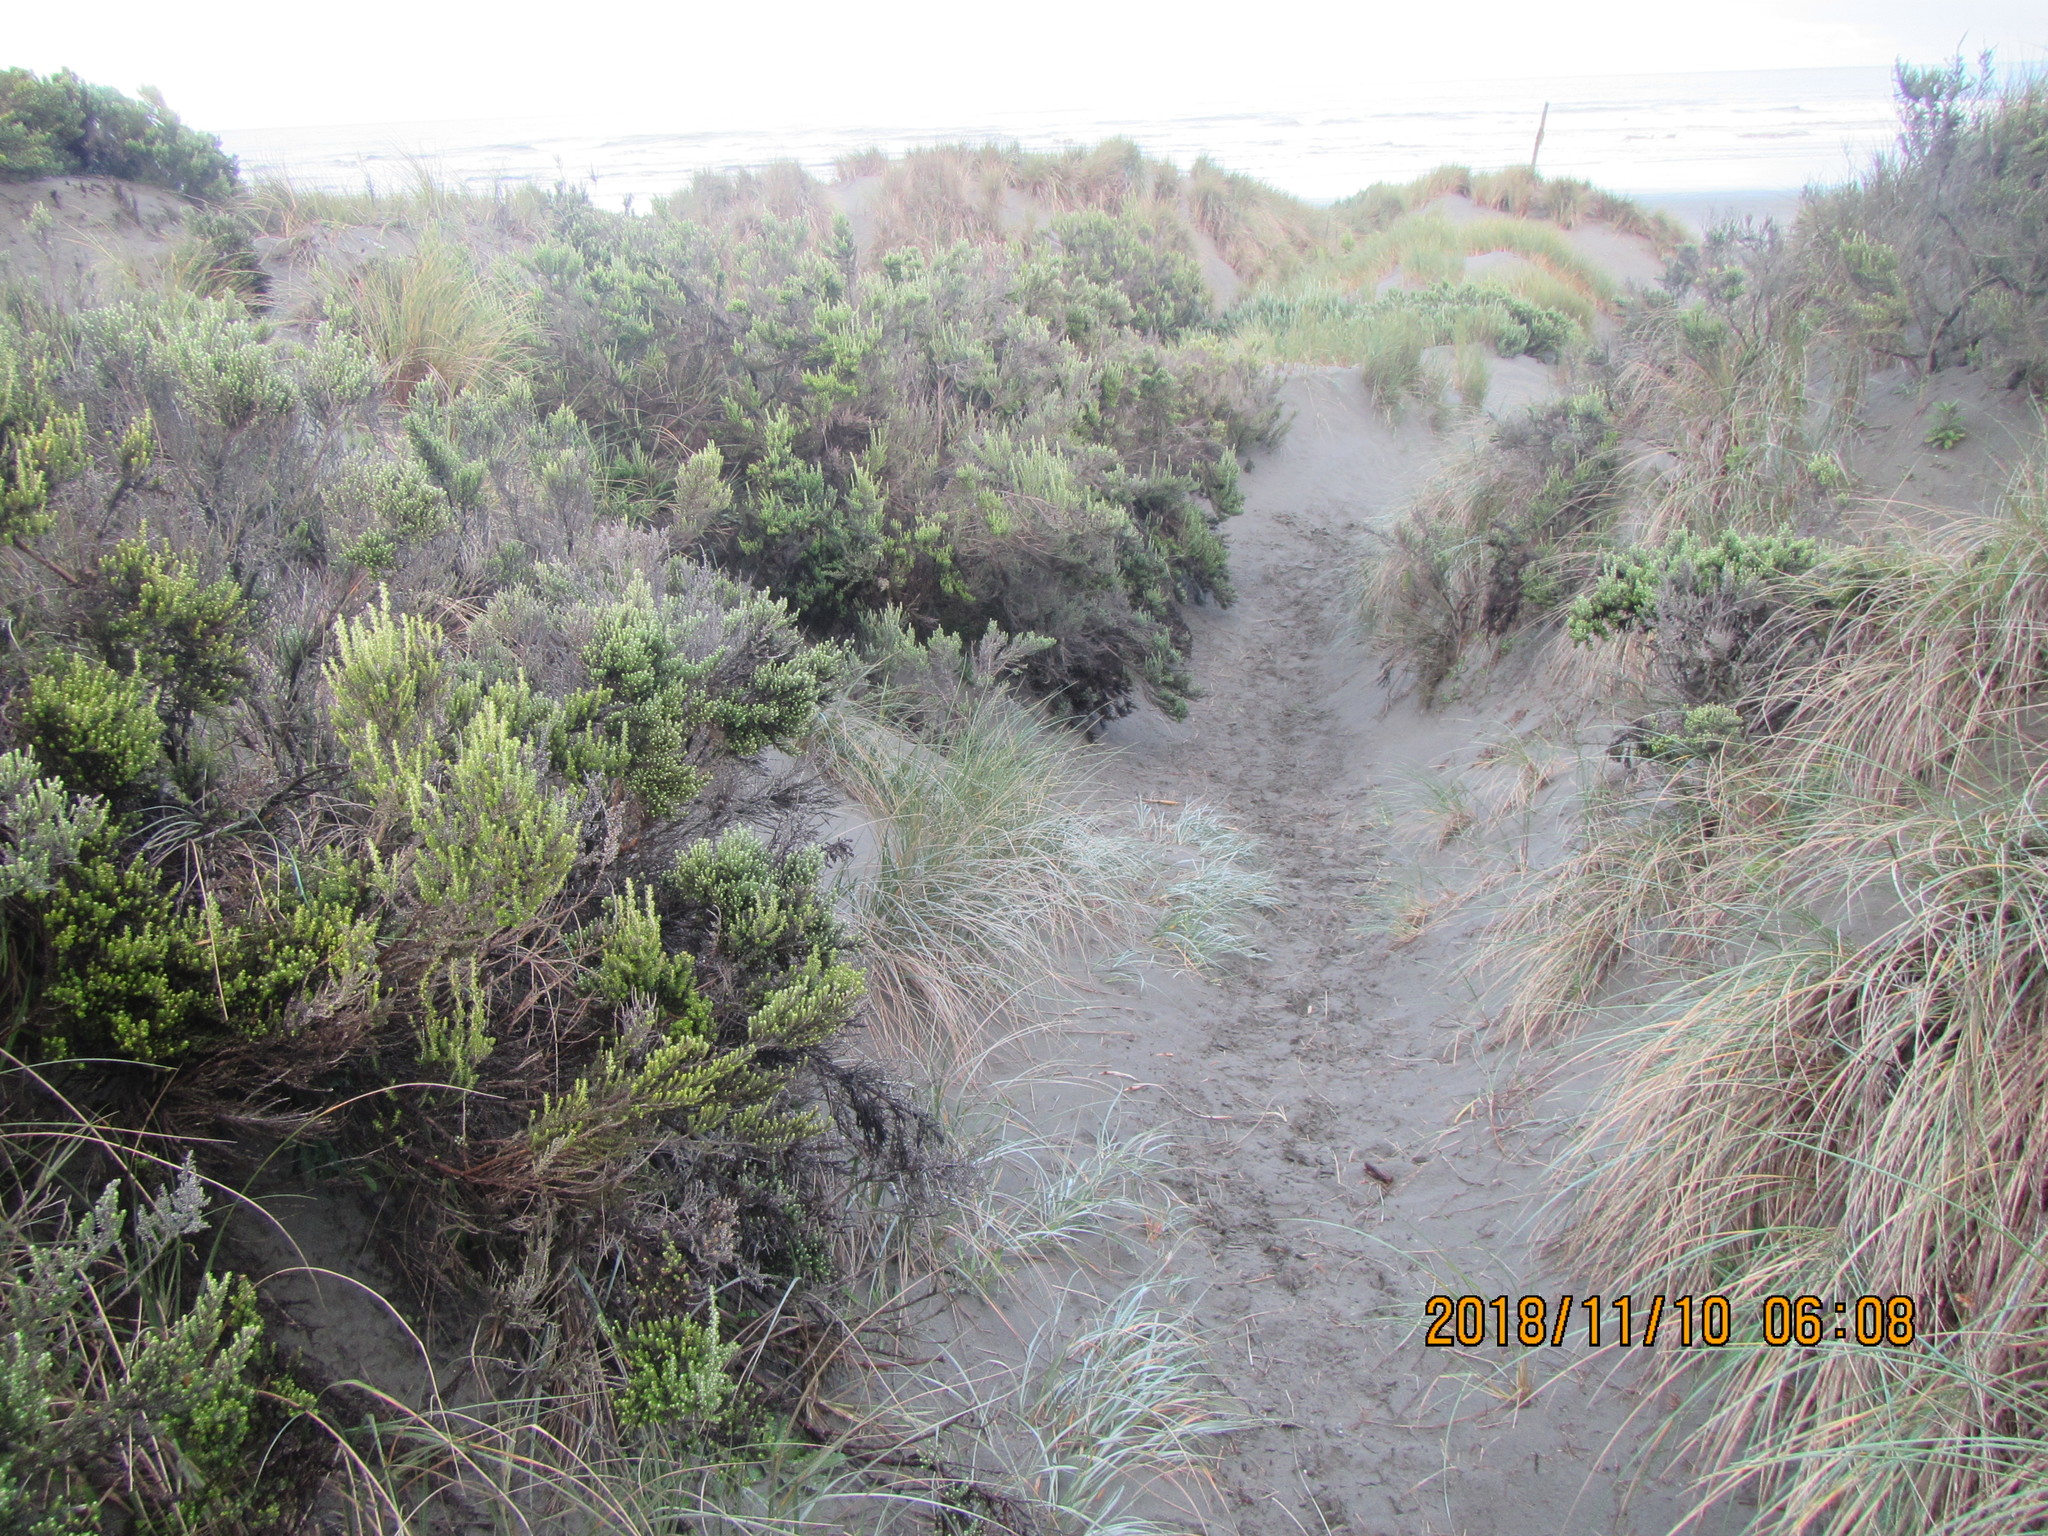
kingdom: Plantae
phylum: Tracheophyta
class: Magnoliopsida
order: Asterales
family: Asteraceae
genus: Ozothamnus
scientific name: Ozothamnus leptophyllus
